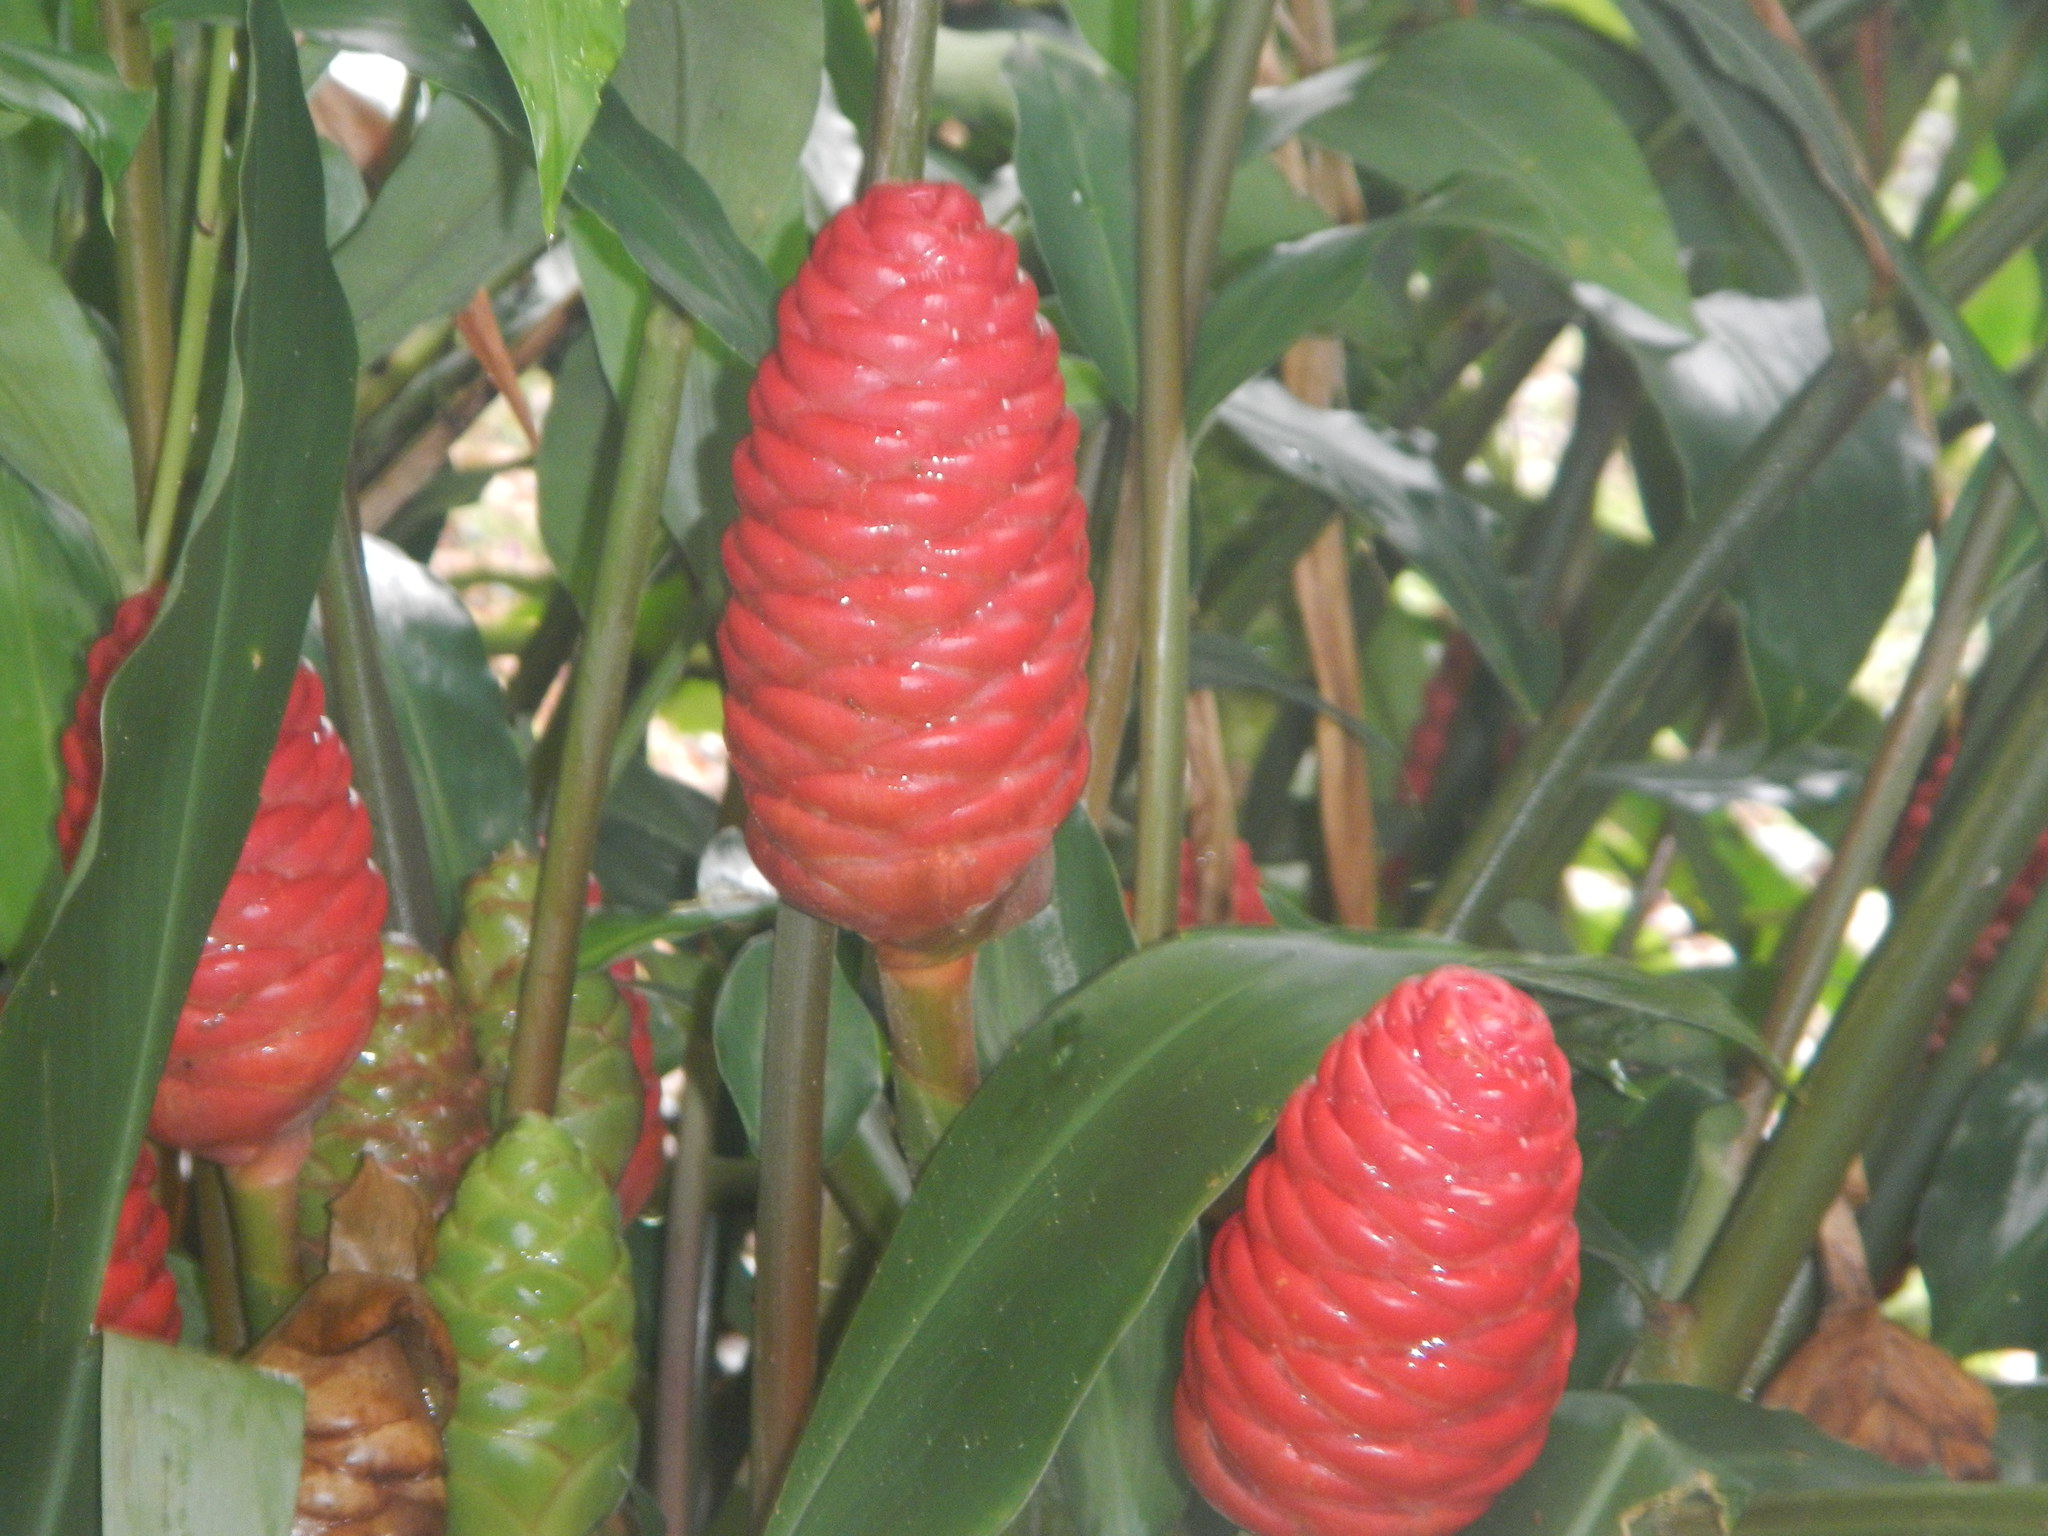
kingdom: Plantae
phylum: Tracheophyta
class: Liliopsida
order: Zingiberales
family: Zingiberaceae
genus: Zingiber
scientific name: Zingiber zerumbet
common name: Bitter ginger
